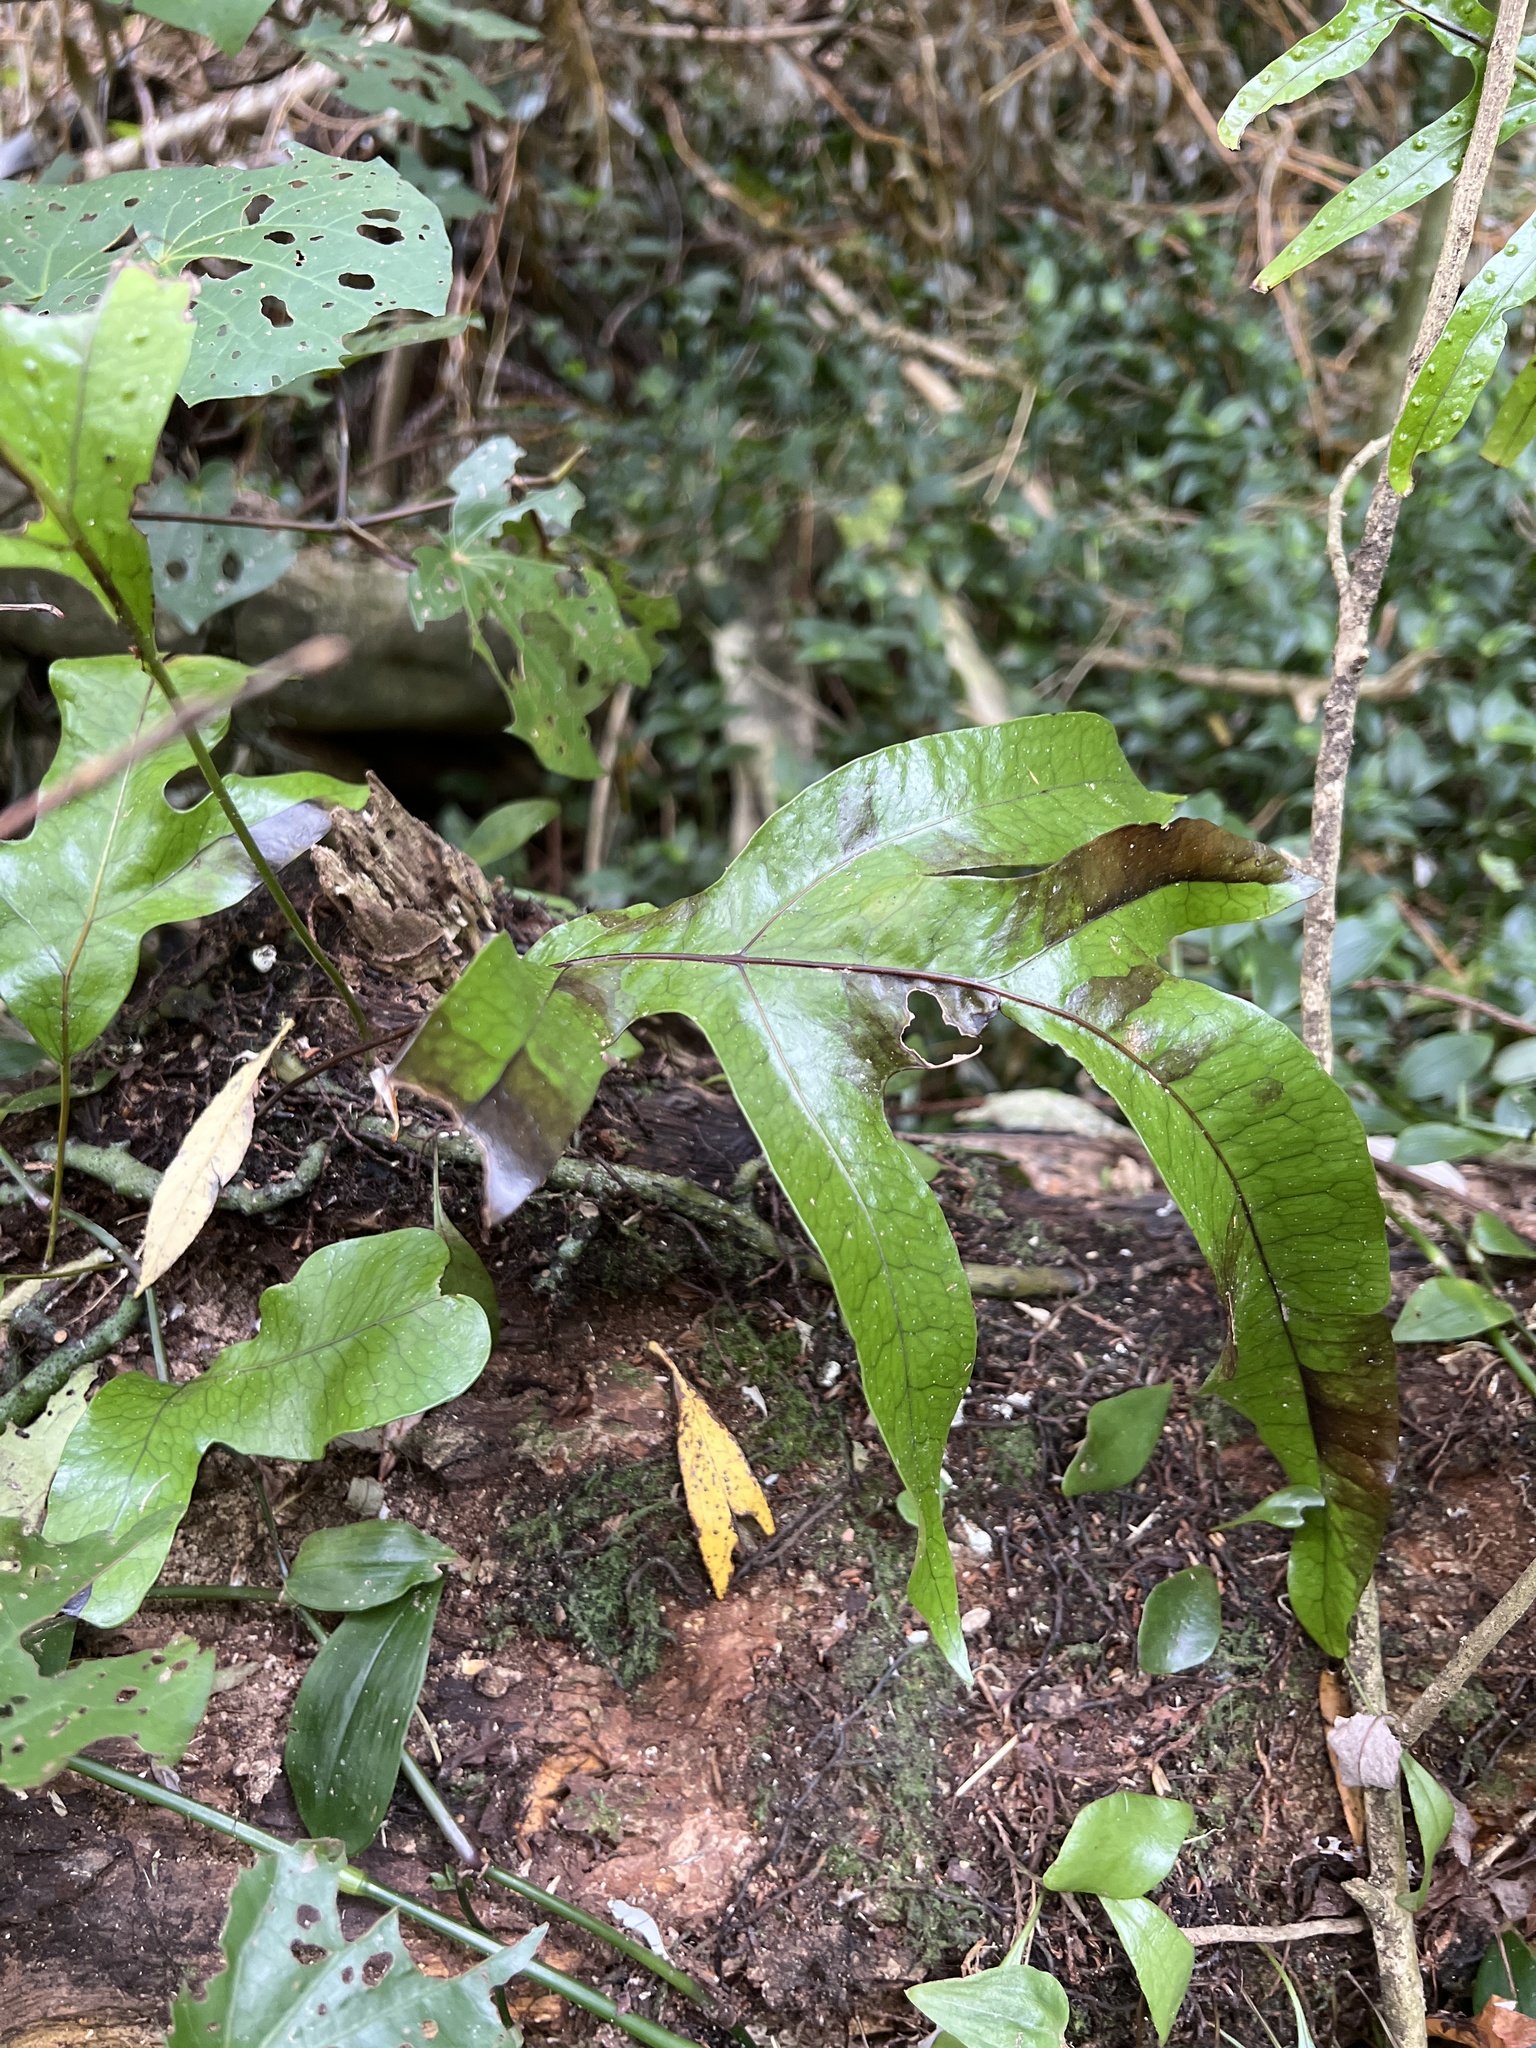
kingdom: Plantae
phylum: Tracheophyta
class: Polypodiopsida
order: Polypodiales
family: Polypodiaceae
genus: Lecanopteris
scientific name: Lecanopteris pustulata
